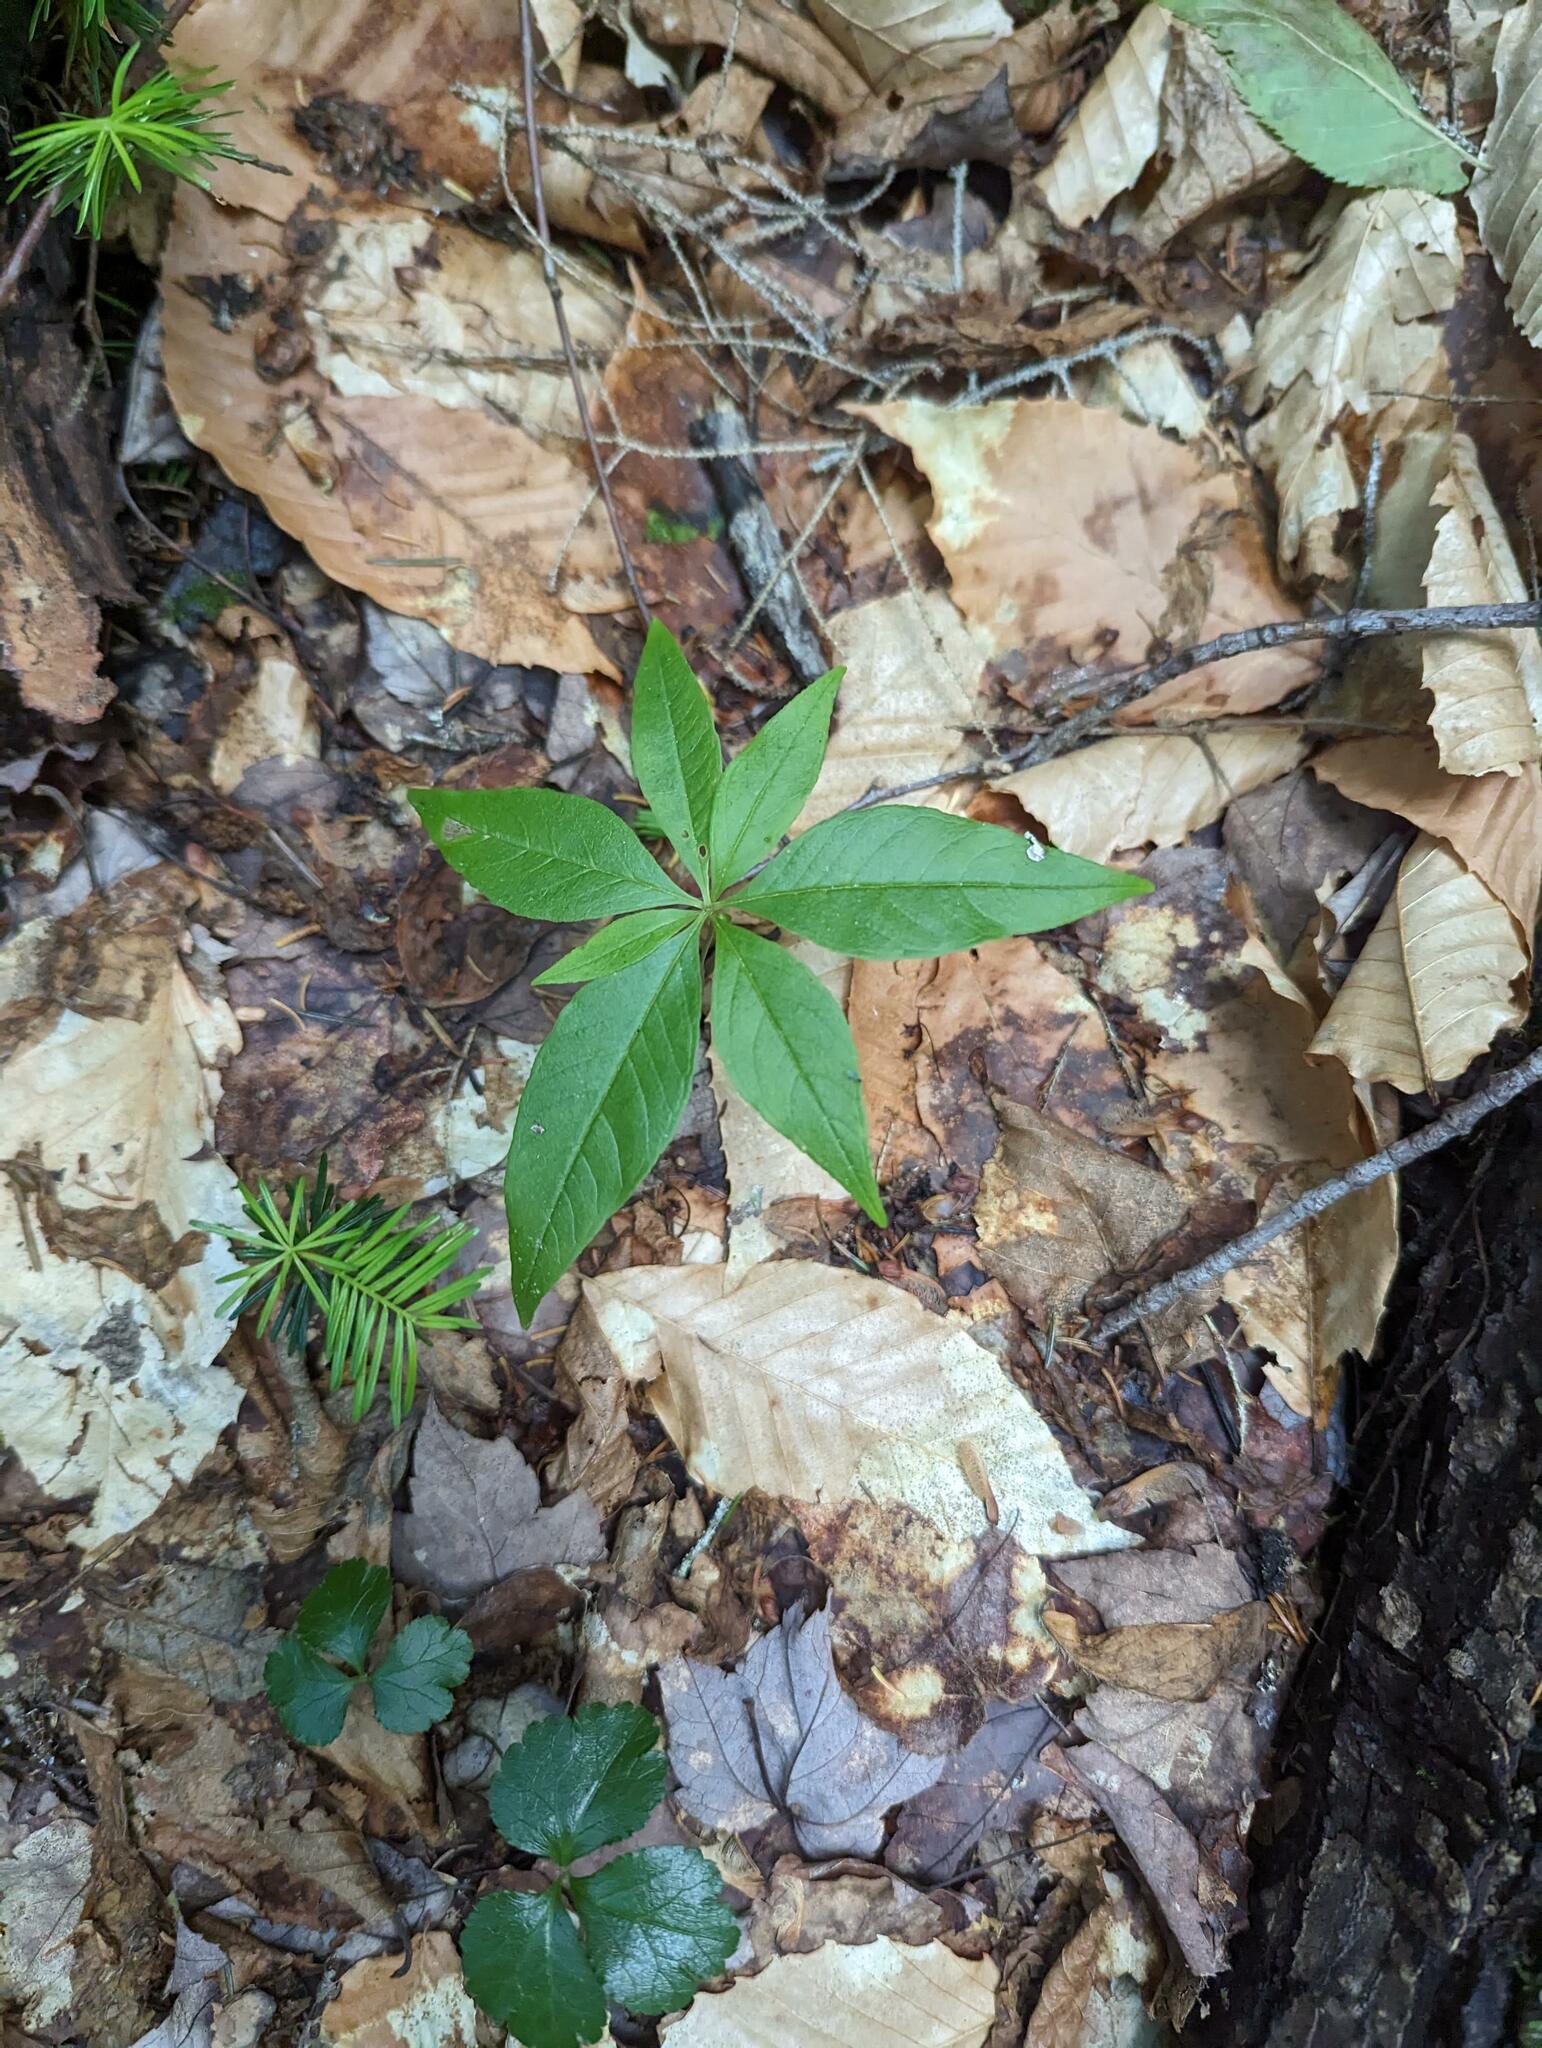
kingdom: Plantae
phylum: Tracheophyta
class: Magnoliopsida
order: Ericales
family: Primulaceae
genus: Lysimachia
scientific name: Lysimachia borealis
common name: American starflower
